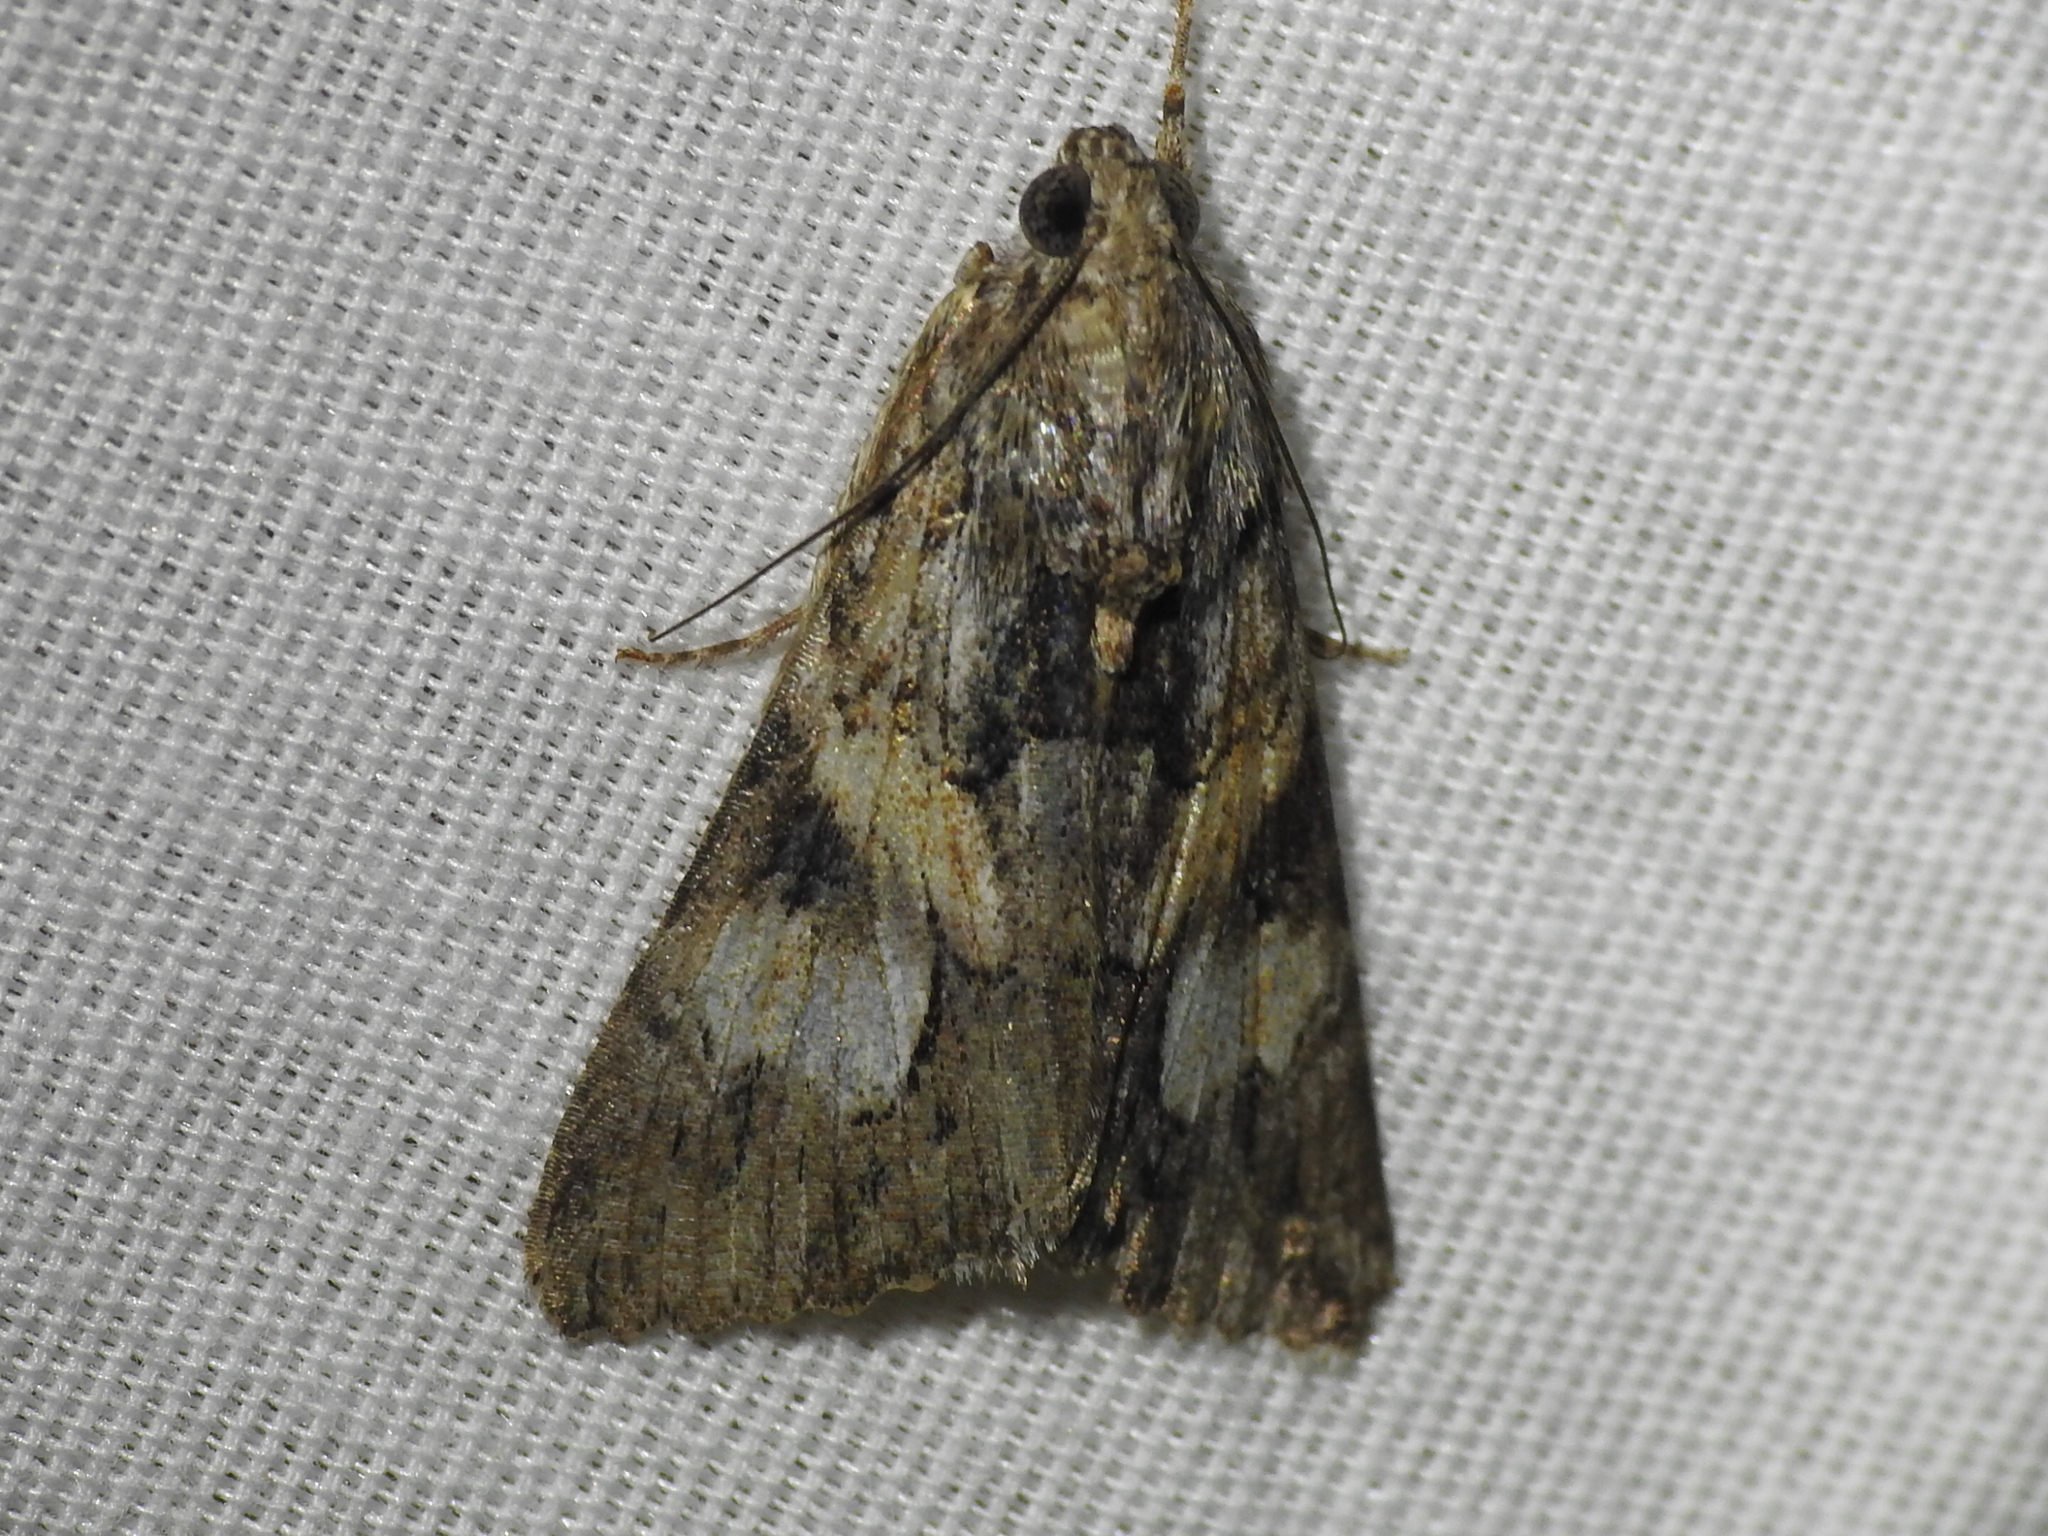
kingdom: Animalia
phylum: Arthropoda
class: Insecta
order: Lepidoptera
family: Erebidae
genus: Melipotis
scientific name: Melipotis jucunda
